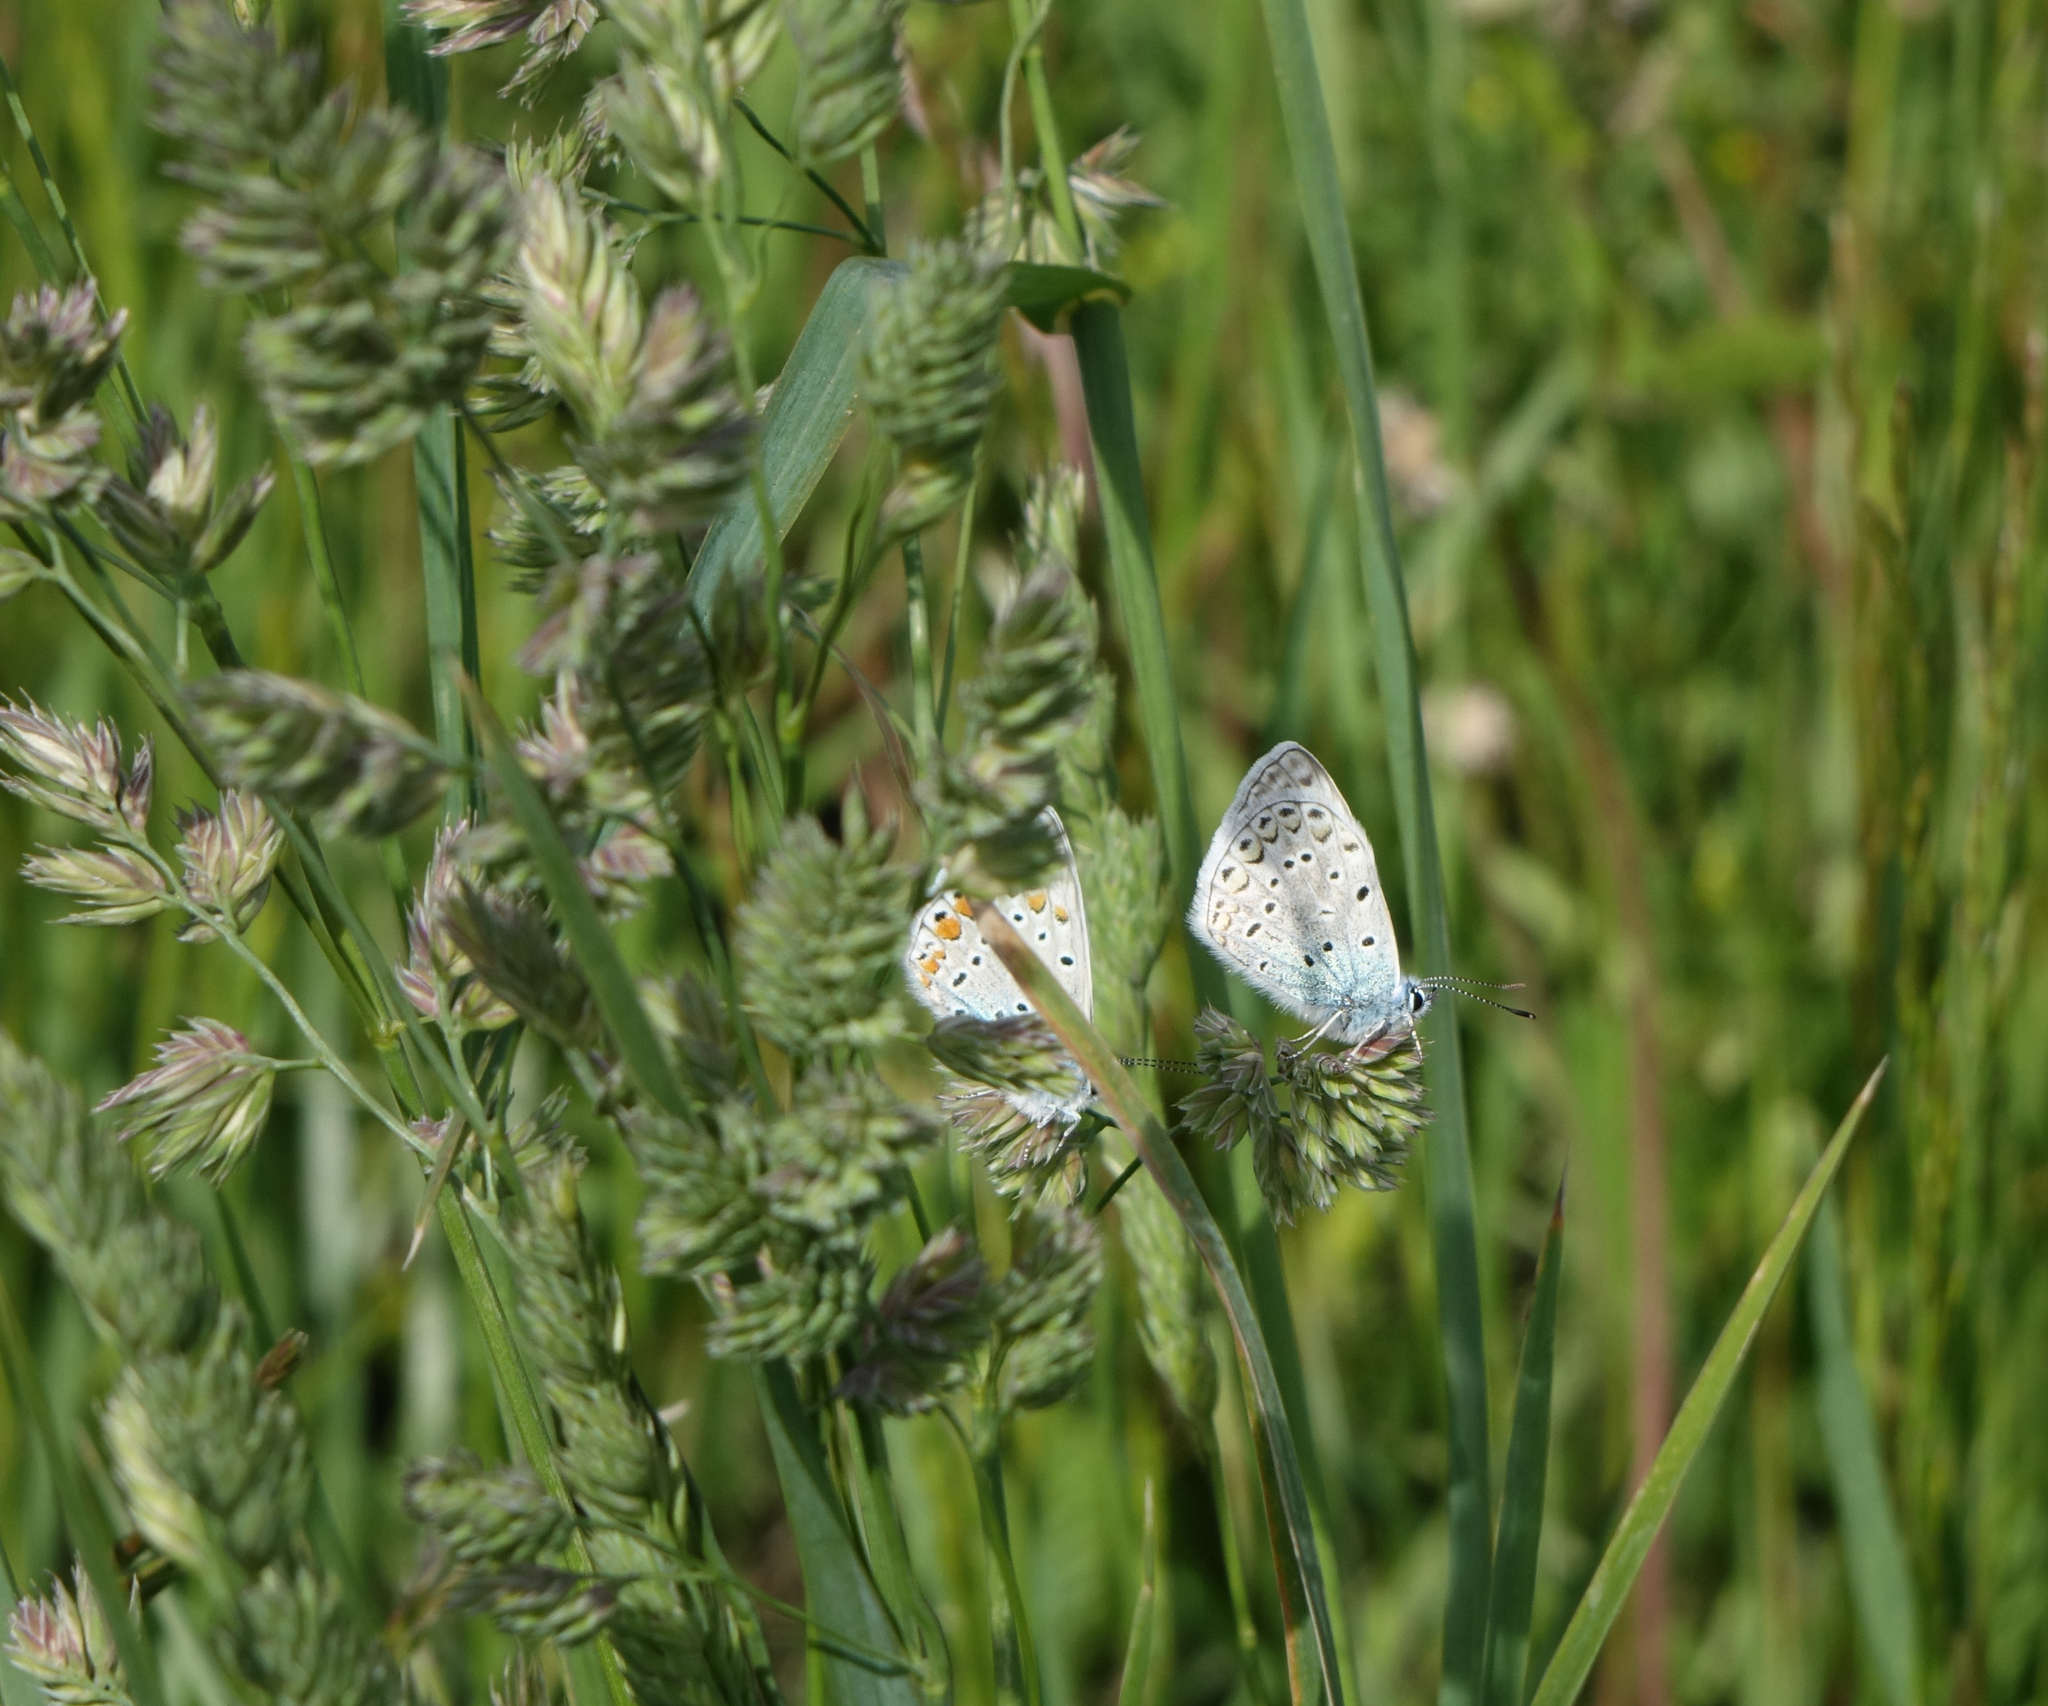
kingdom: Animalia
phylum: Arthropoda
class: Insecta
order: Lepidoptera
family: Lycaenidae
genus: Polyommatus
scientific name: Polyommatus icarus
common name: Common blue
